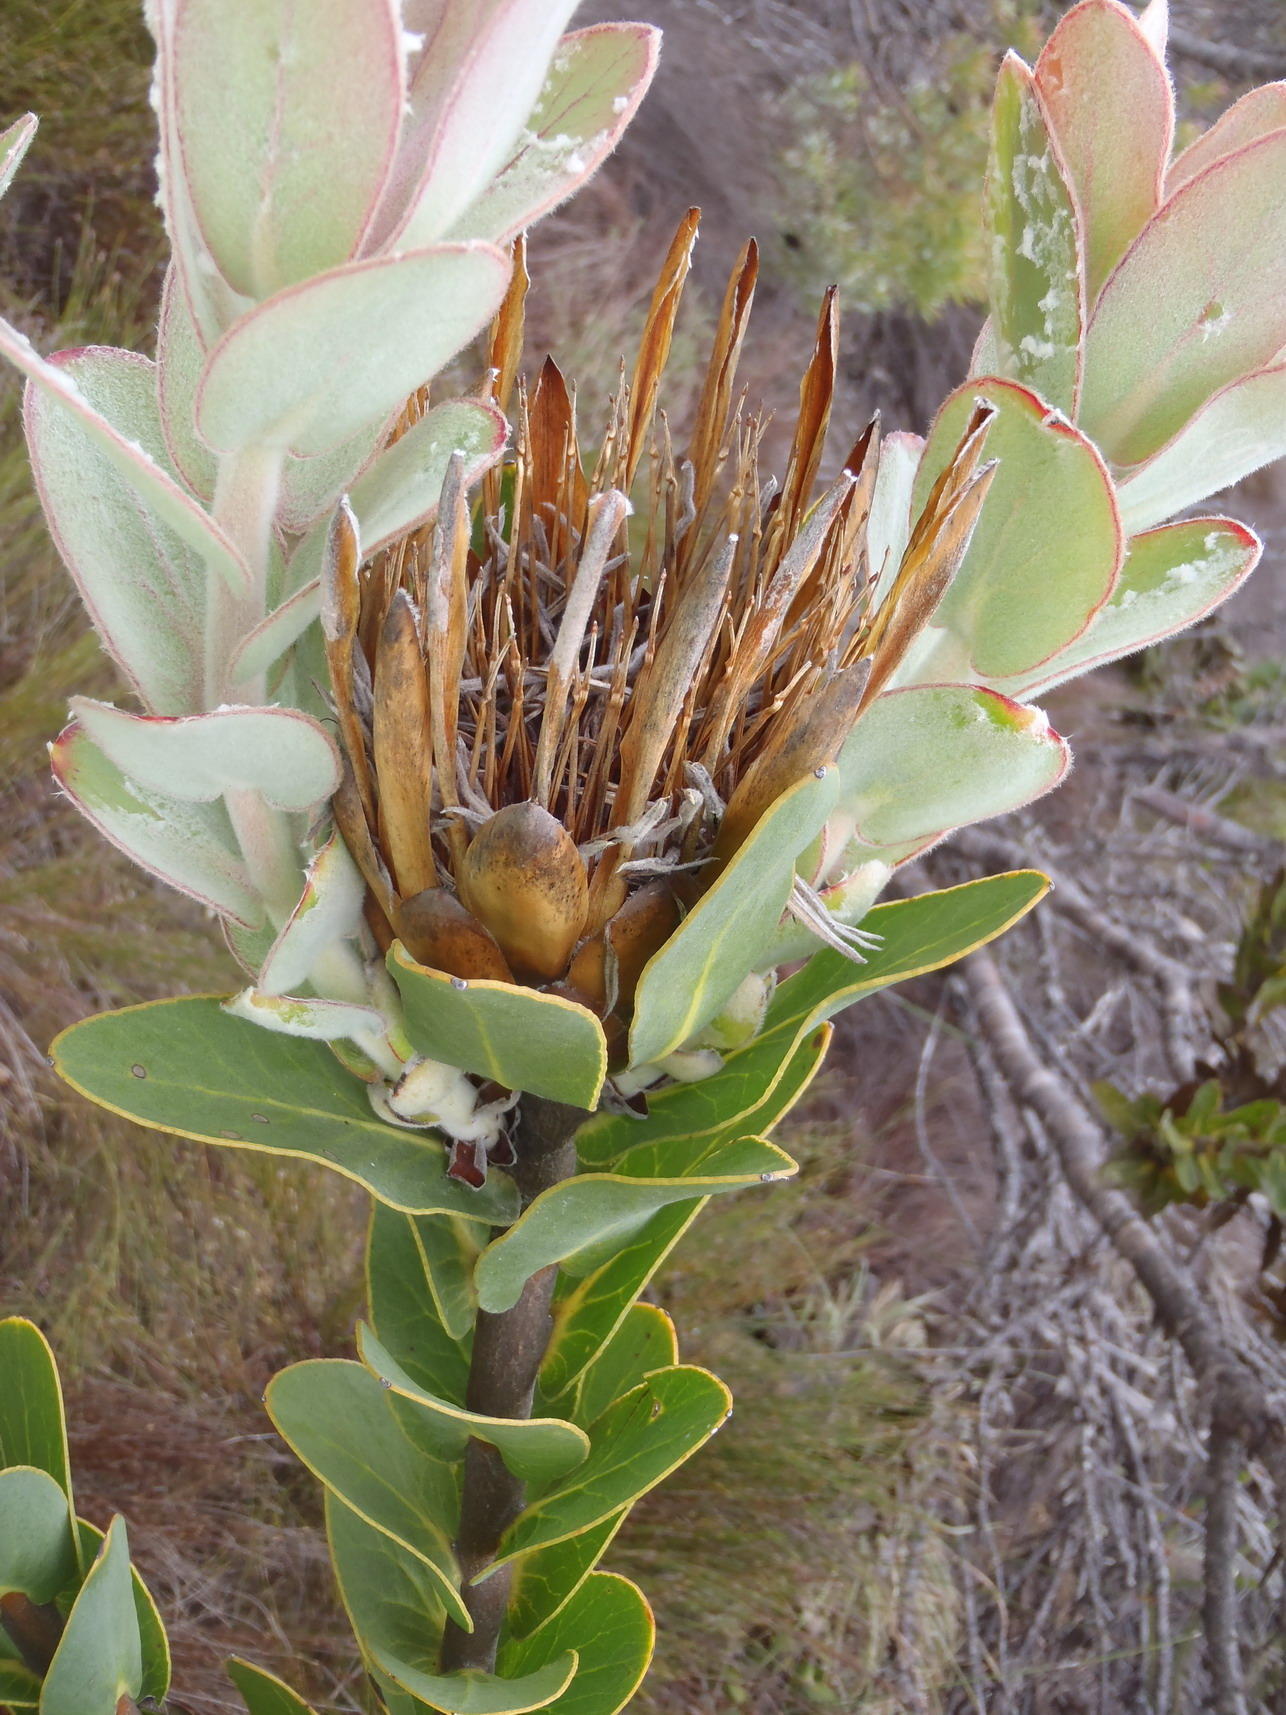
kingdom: Plantae
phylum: Tracheophyta
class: Magnoliopsida
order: Proteales
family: Proteaceae
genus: Protea
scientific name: Protea compacta
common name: Bot river protea
